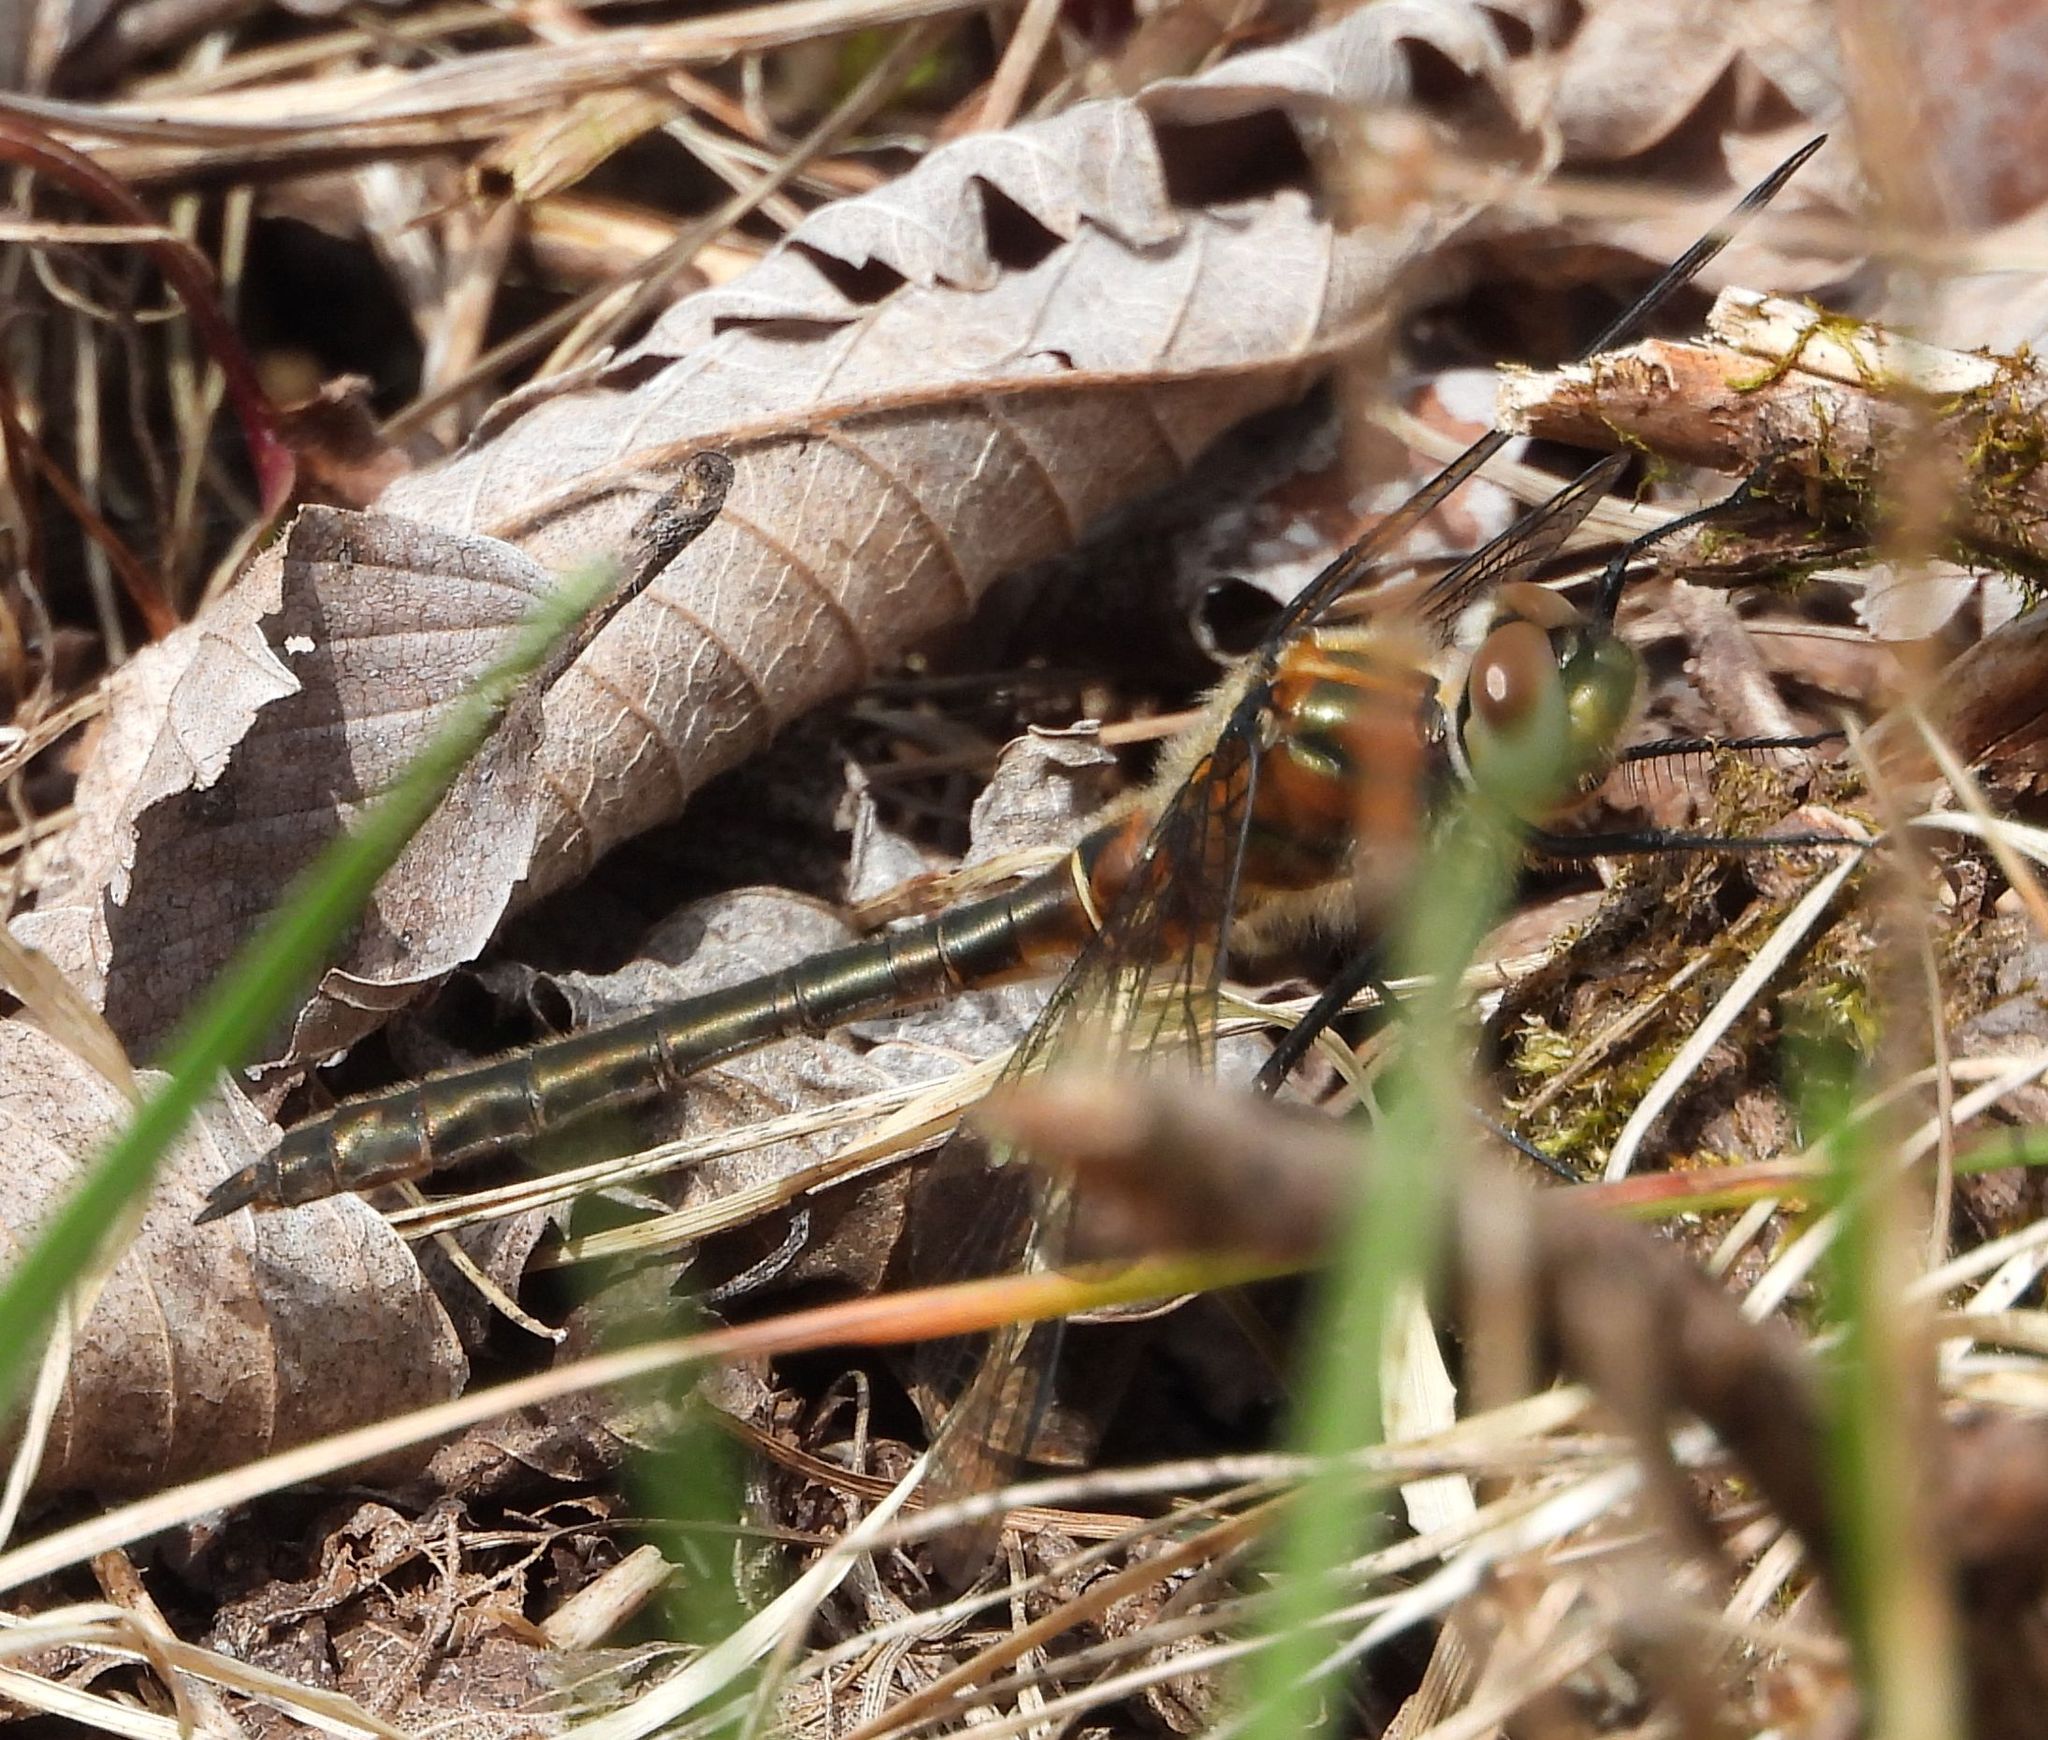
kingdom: Animalia
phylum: Arthropoda
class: Insecta
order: Odonata
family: Corduliidae
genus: Cordulia
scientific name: Cordulia shurtleffii
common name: American emerald
